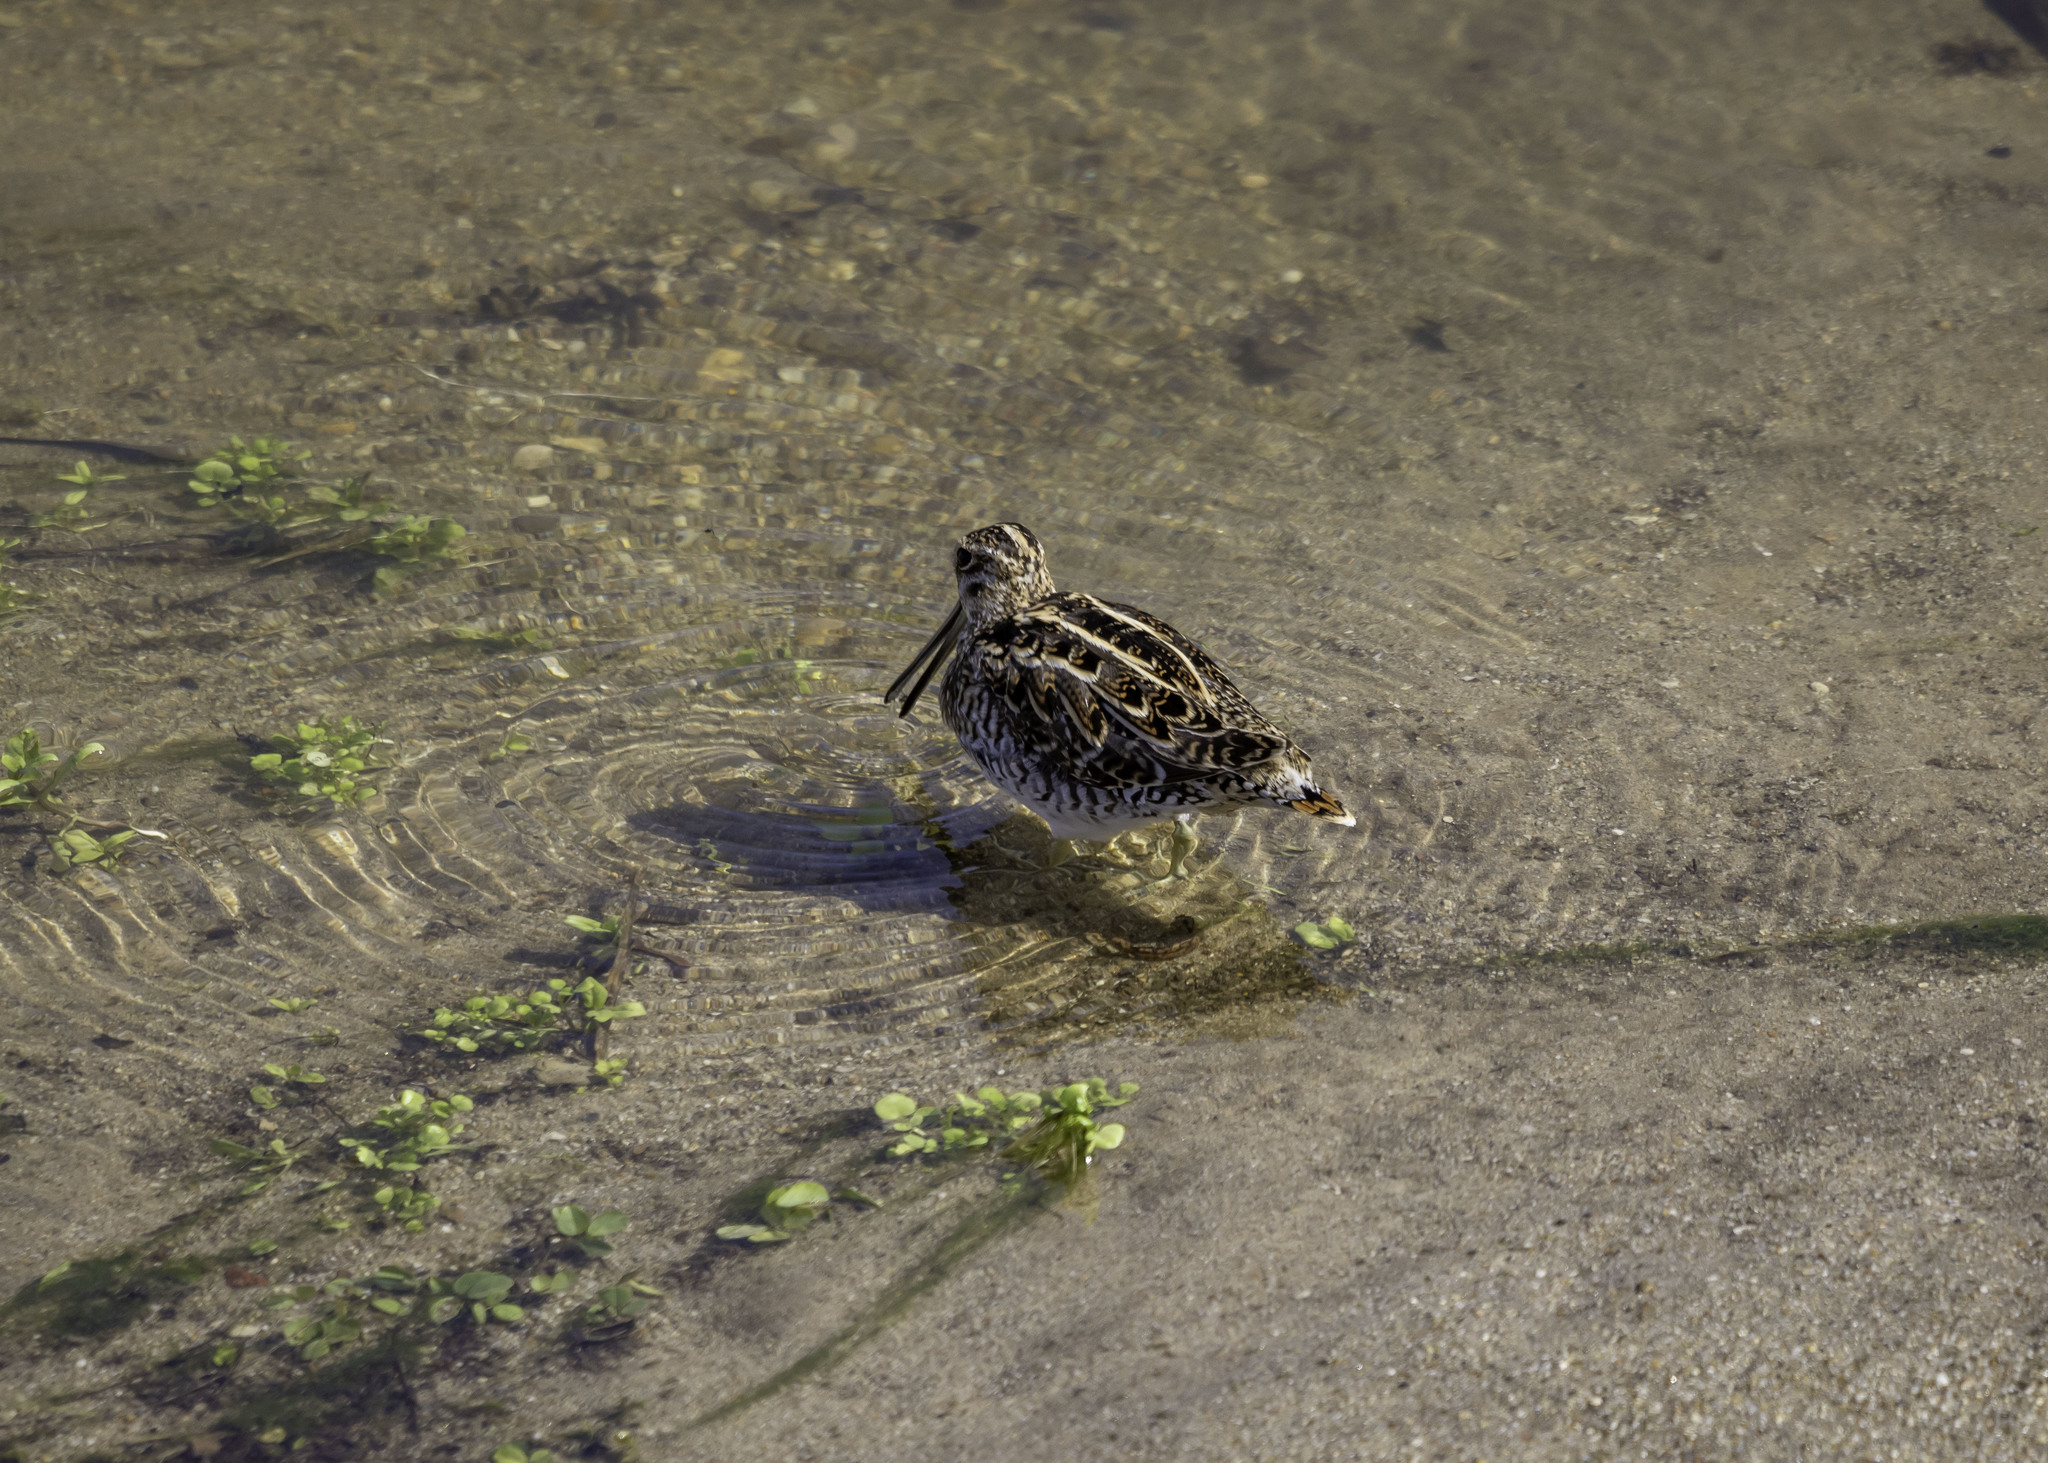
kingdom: Animalia
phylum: Chordata
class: Aves
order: Charadriiformes
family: Scolopacidae
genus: Gallinago
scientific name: Gallinago delicata
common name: Wilson's snipe
